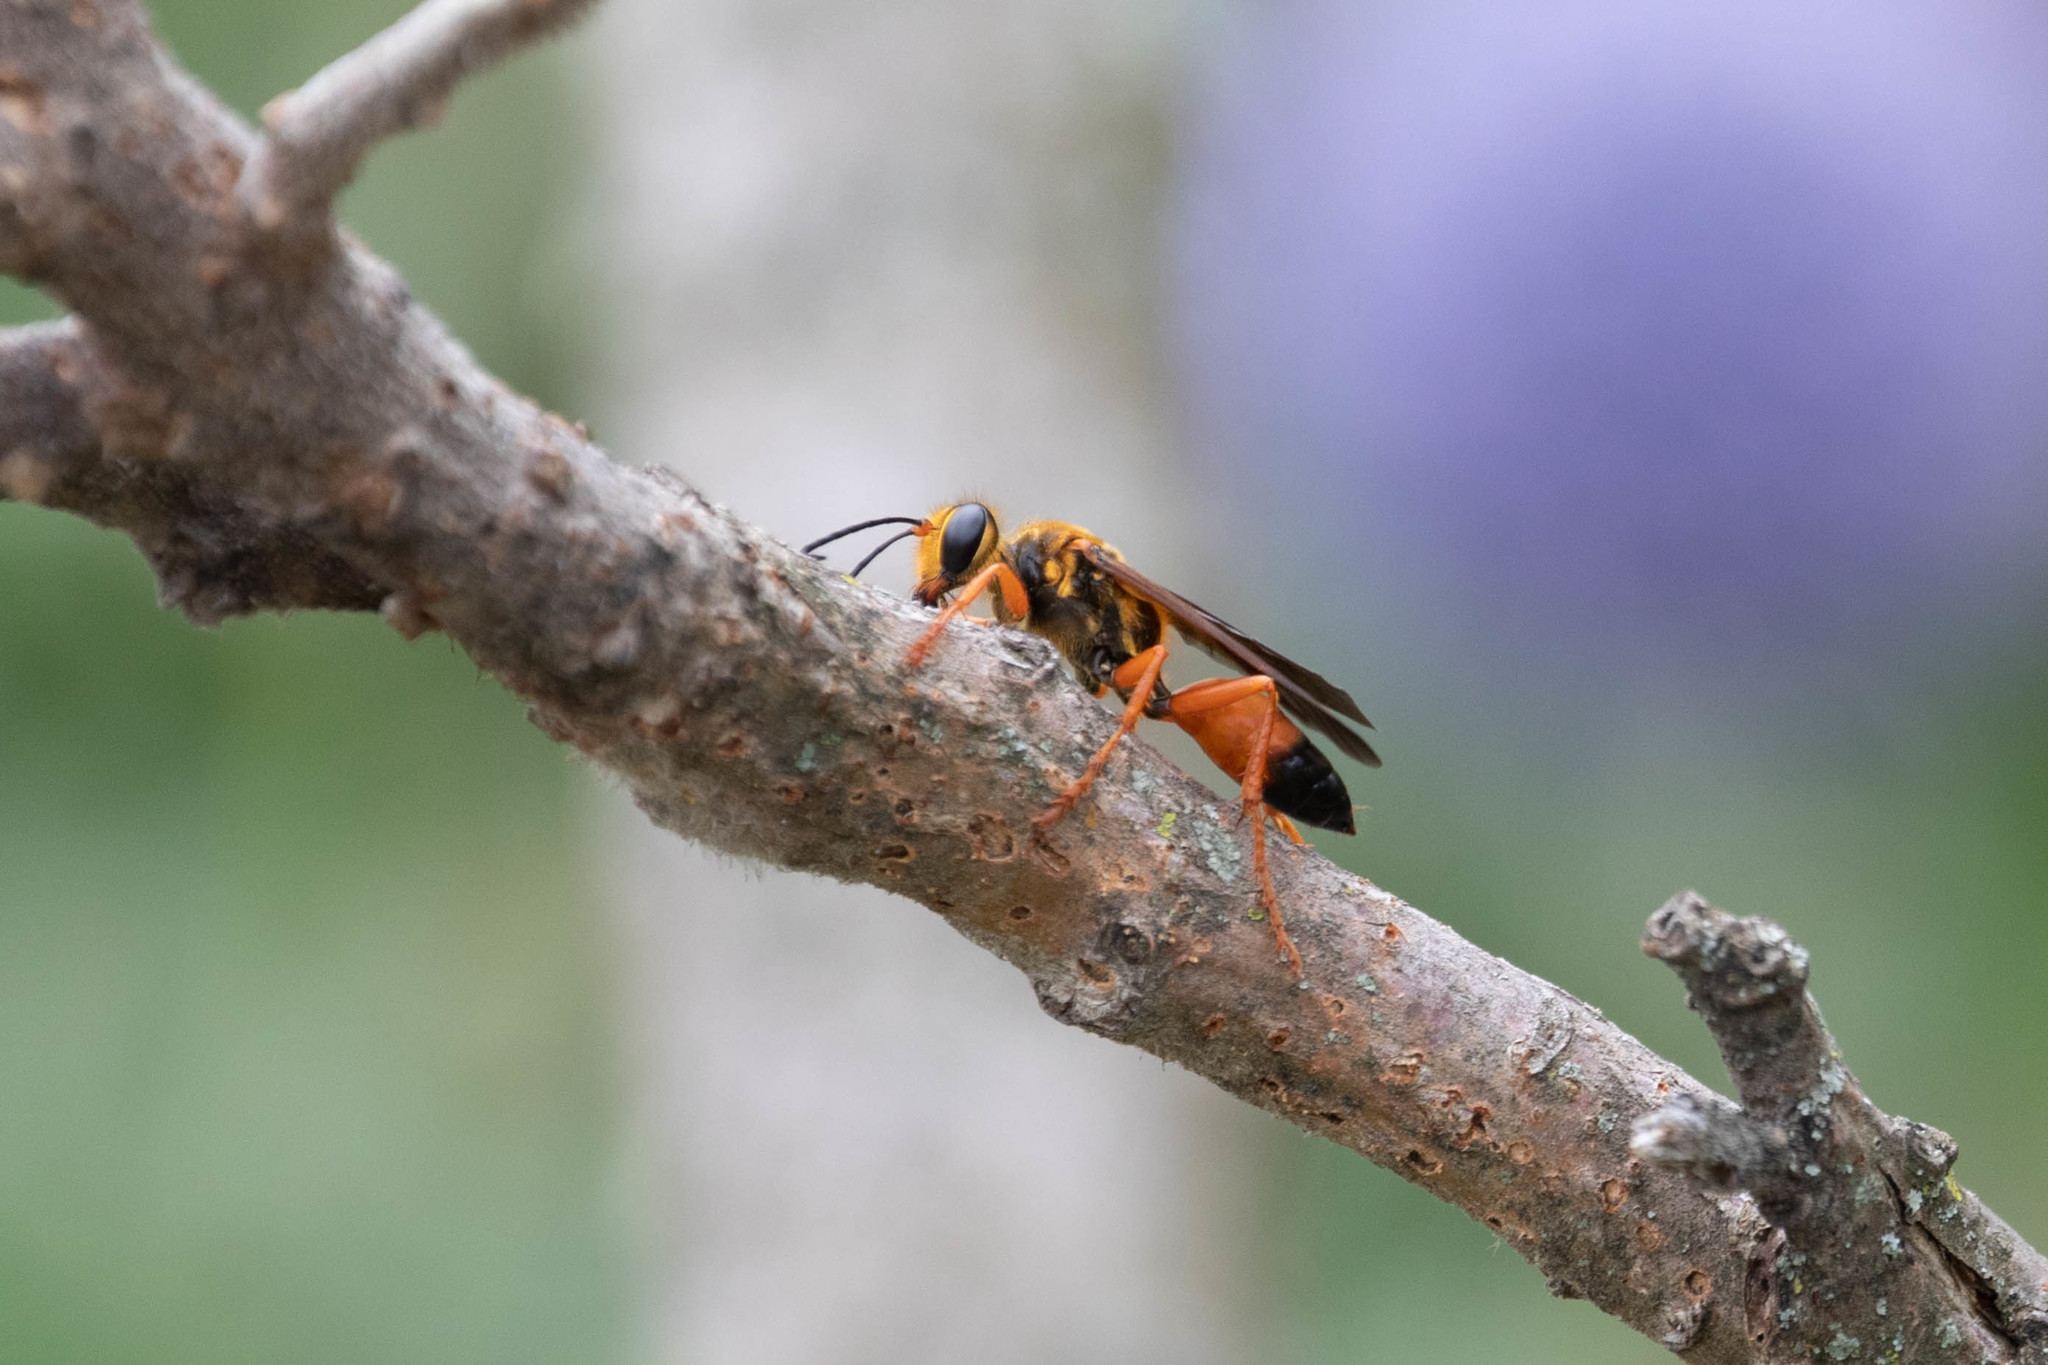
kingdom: Animalia
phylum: Arthropoda
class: Insecta
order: Hymenoptera
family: Sphecidae
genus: Sphex
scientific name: Sphex ichneumoneus
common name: Great golden digger wasp
